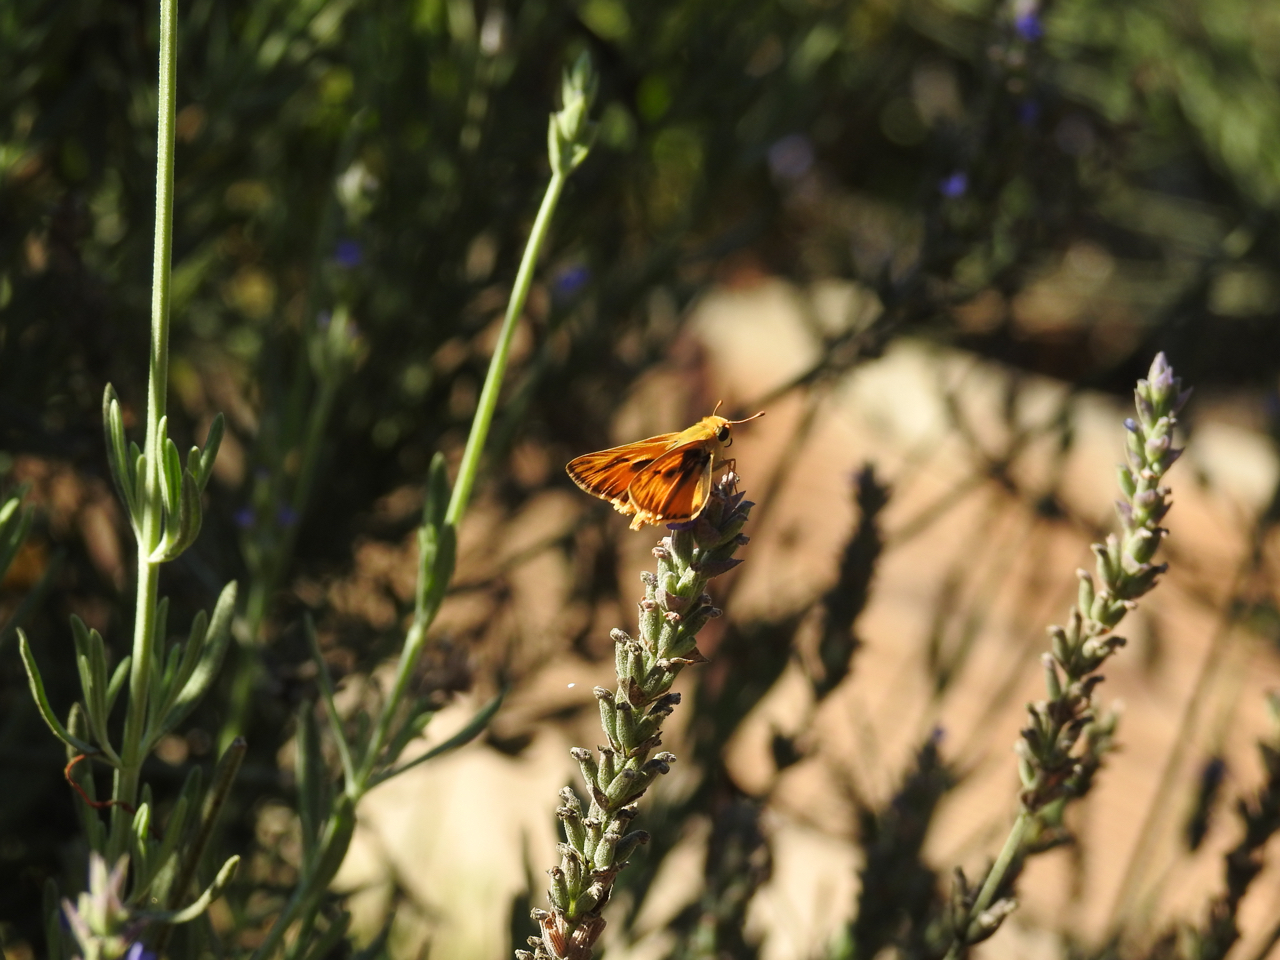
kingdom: Animalia
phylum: Arthropoda
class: Insecta
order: Lepidoptera
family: Hesperiidae
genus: Hylephila
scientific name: Hylephila phyleus
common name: Fiery skipper
